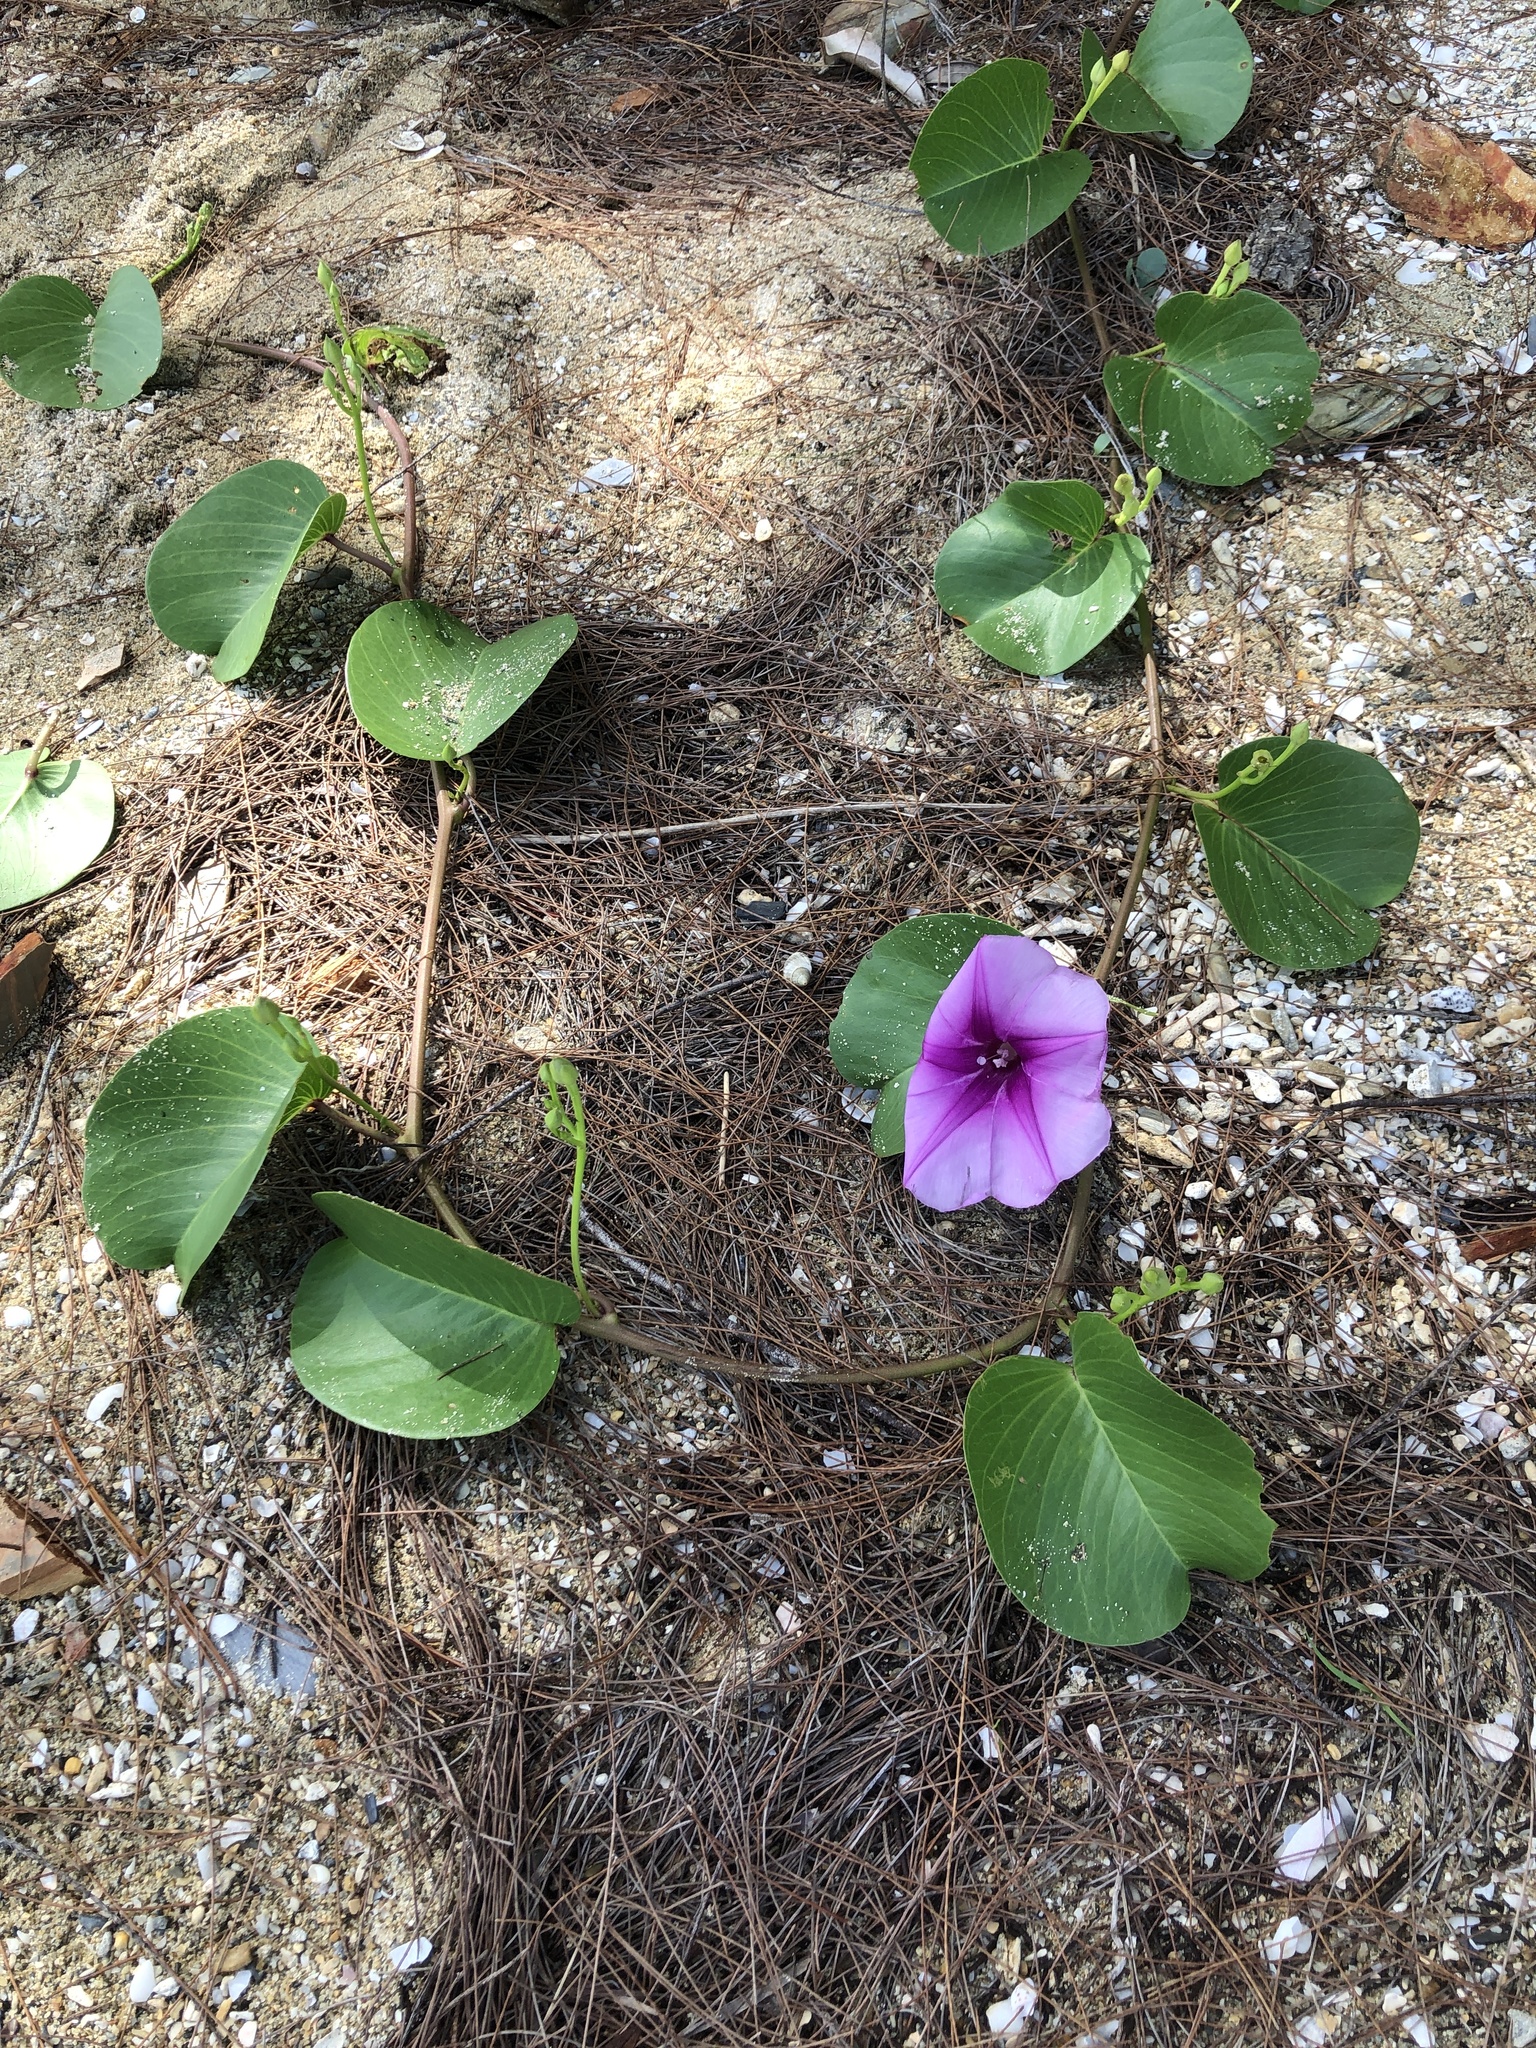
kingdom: Plantae
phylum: Tracheophyta
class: Magnoliopsida
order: Solanales
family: Convolvulaceae
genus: Ipomoea
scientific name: Ipomoea pes-caprae
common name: Beach morning glory
